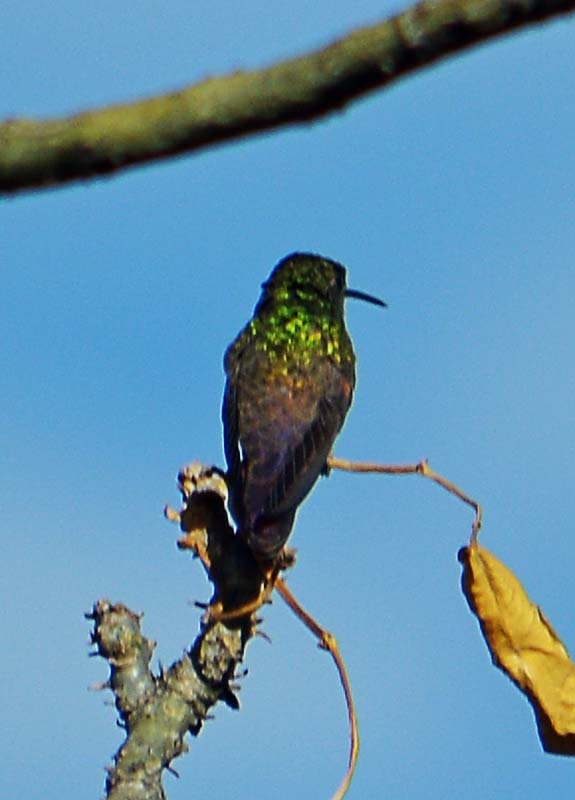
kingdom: Animalia
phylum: Chordata
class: Aves
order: Apodiformes
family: Trochilidae
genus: Saucerottia
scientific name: Saucerottia beryllina
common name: Berylline hummingbird
